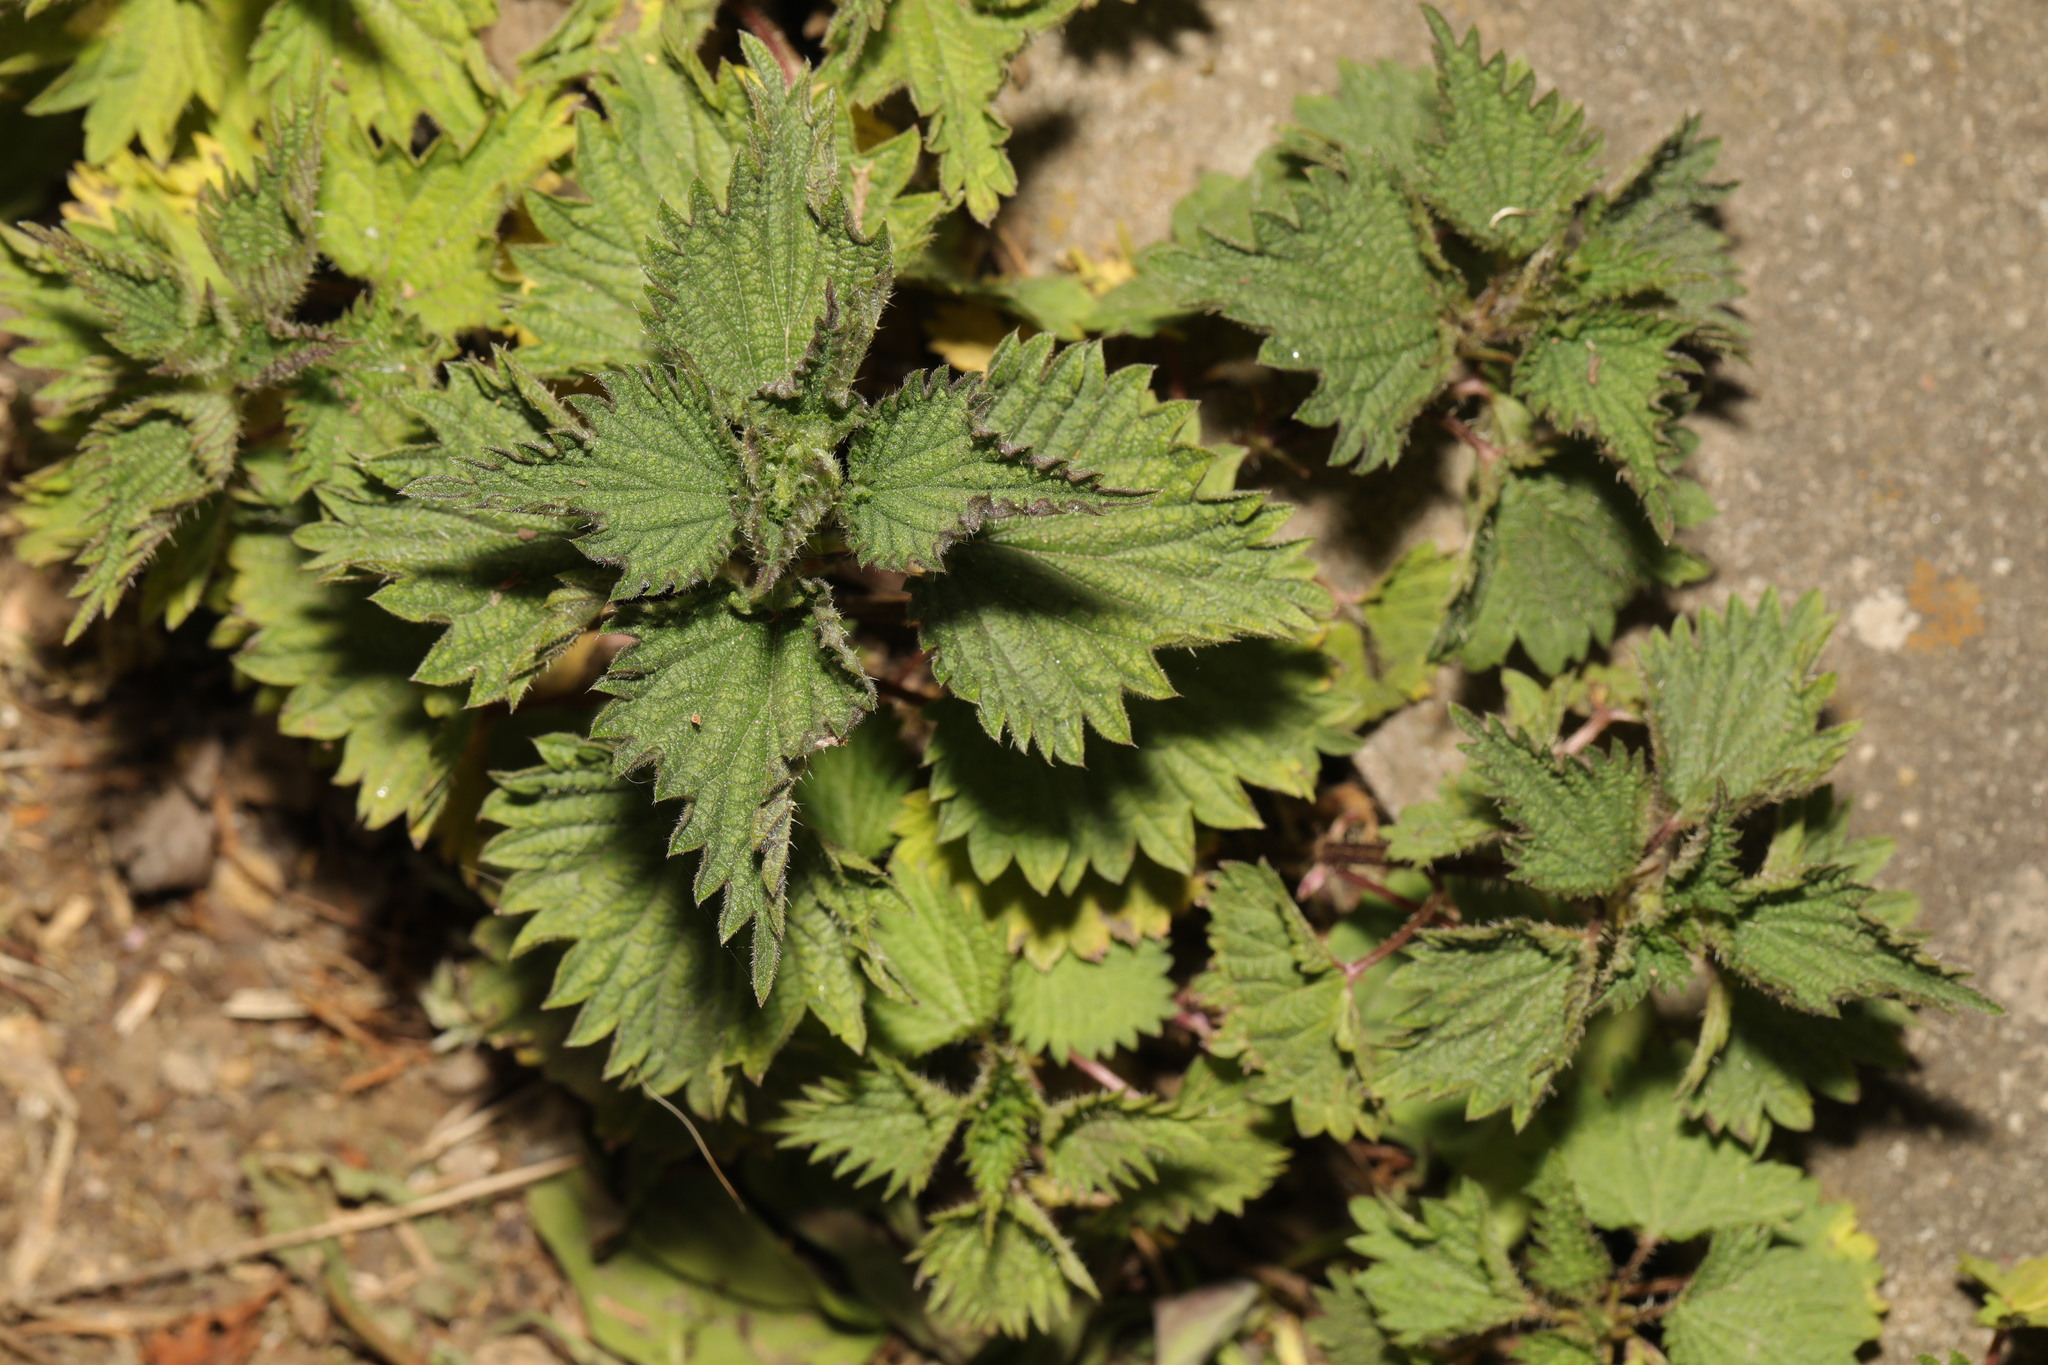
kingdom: Plantae
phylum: Tracheophyta
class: Magnoliopsida
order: Rosales
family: Urticaceae
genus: Urtica
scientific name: Urtica dioica
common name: Common nettle
